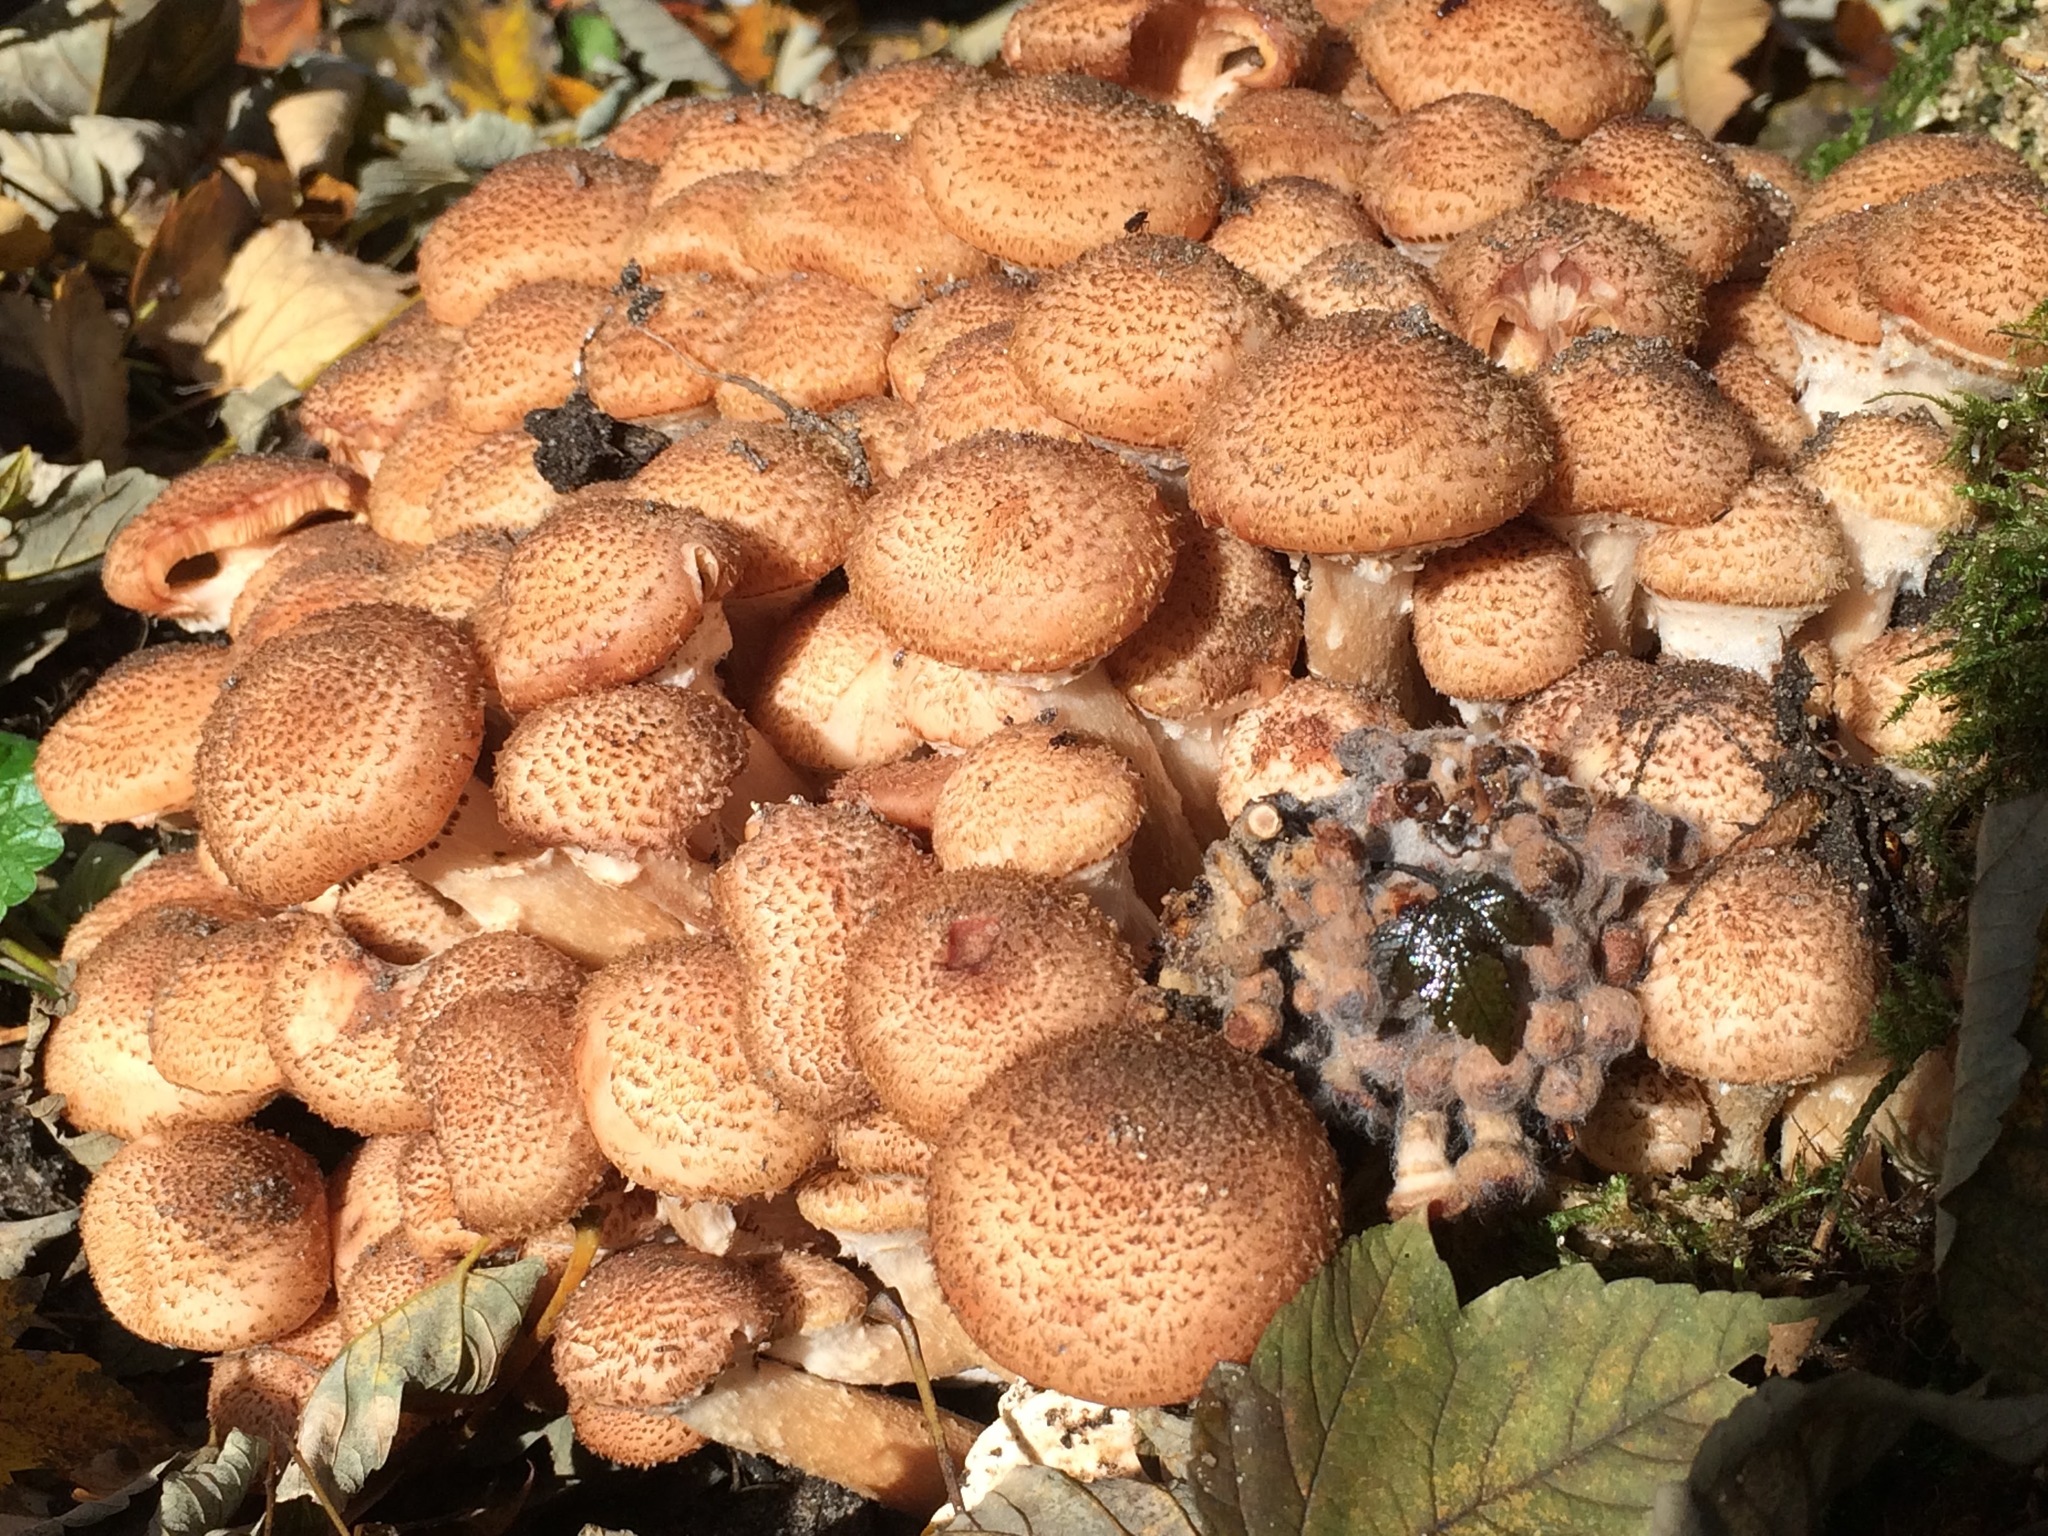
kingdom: Fungi
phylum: Basidiomycota
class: Agaricomycetes
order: Agaricales
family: Strophariaceae
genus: Pholiota
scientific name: Pholiota squarrosa
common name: Shaggy pholiota
